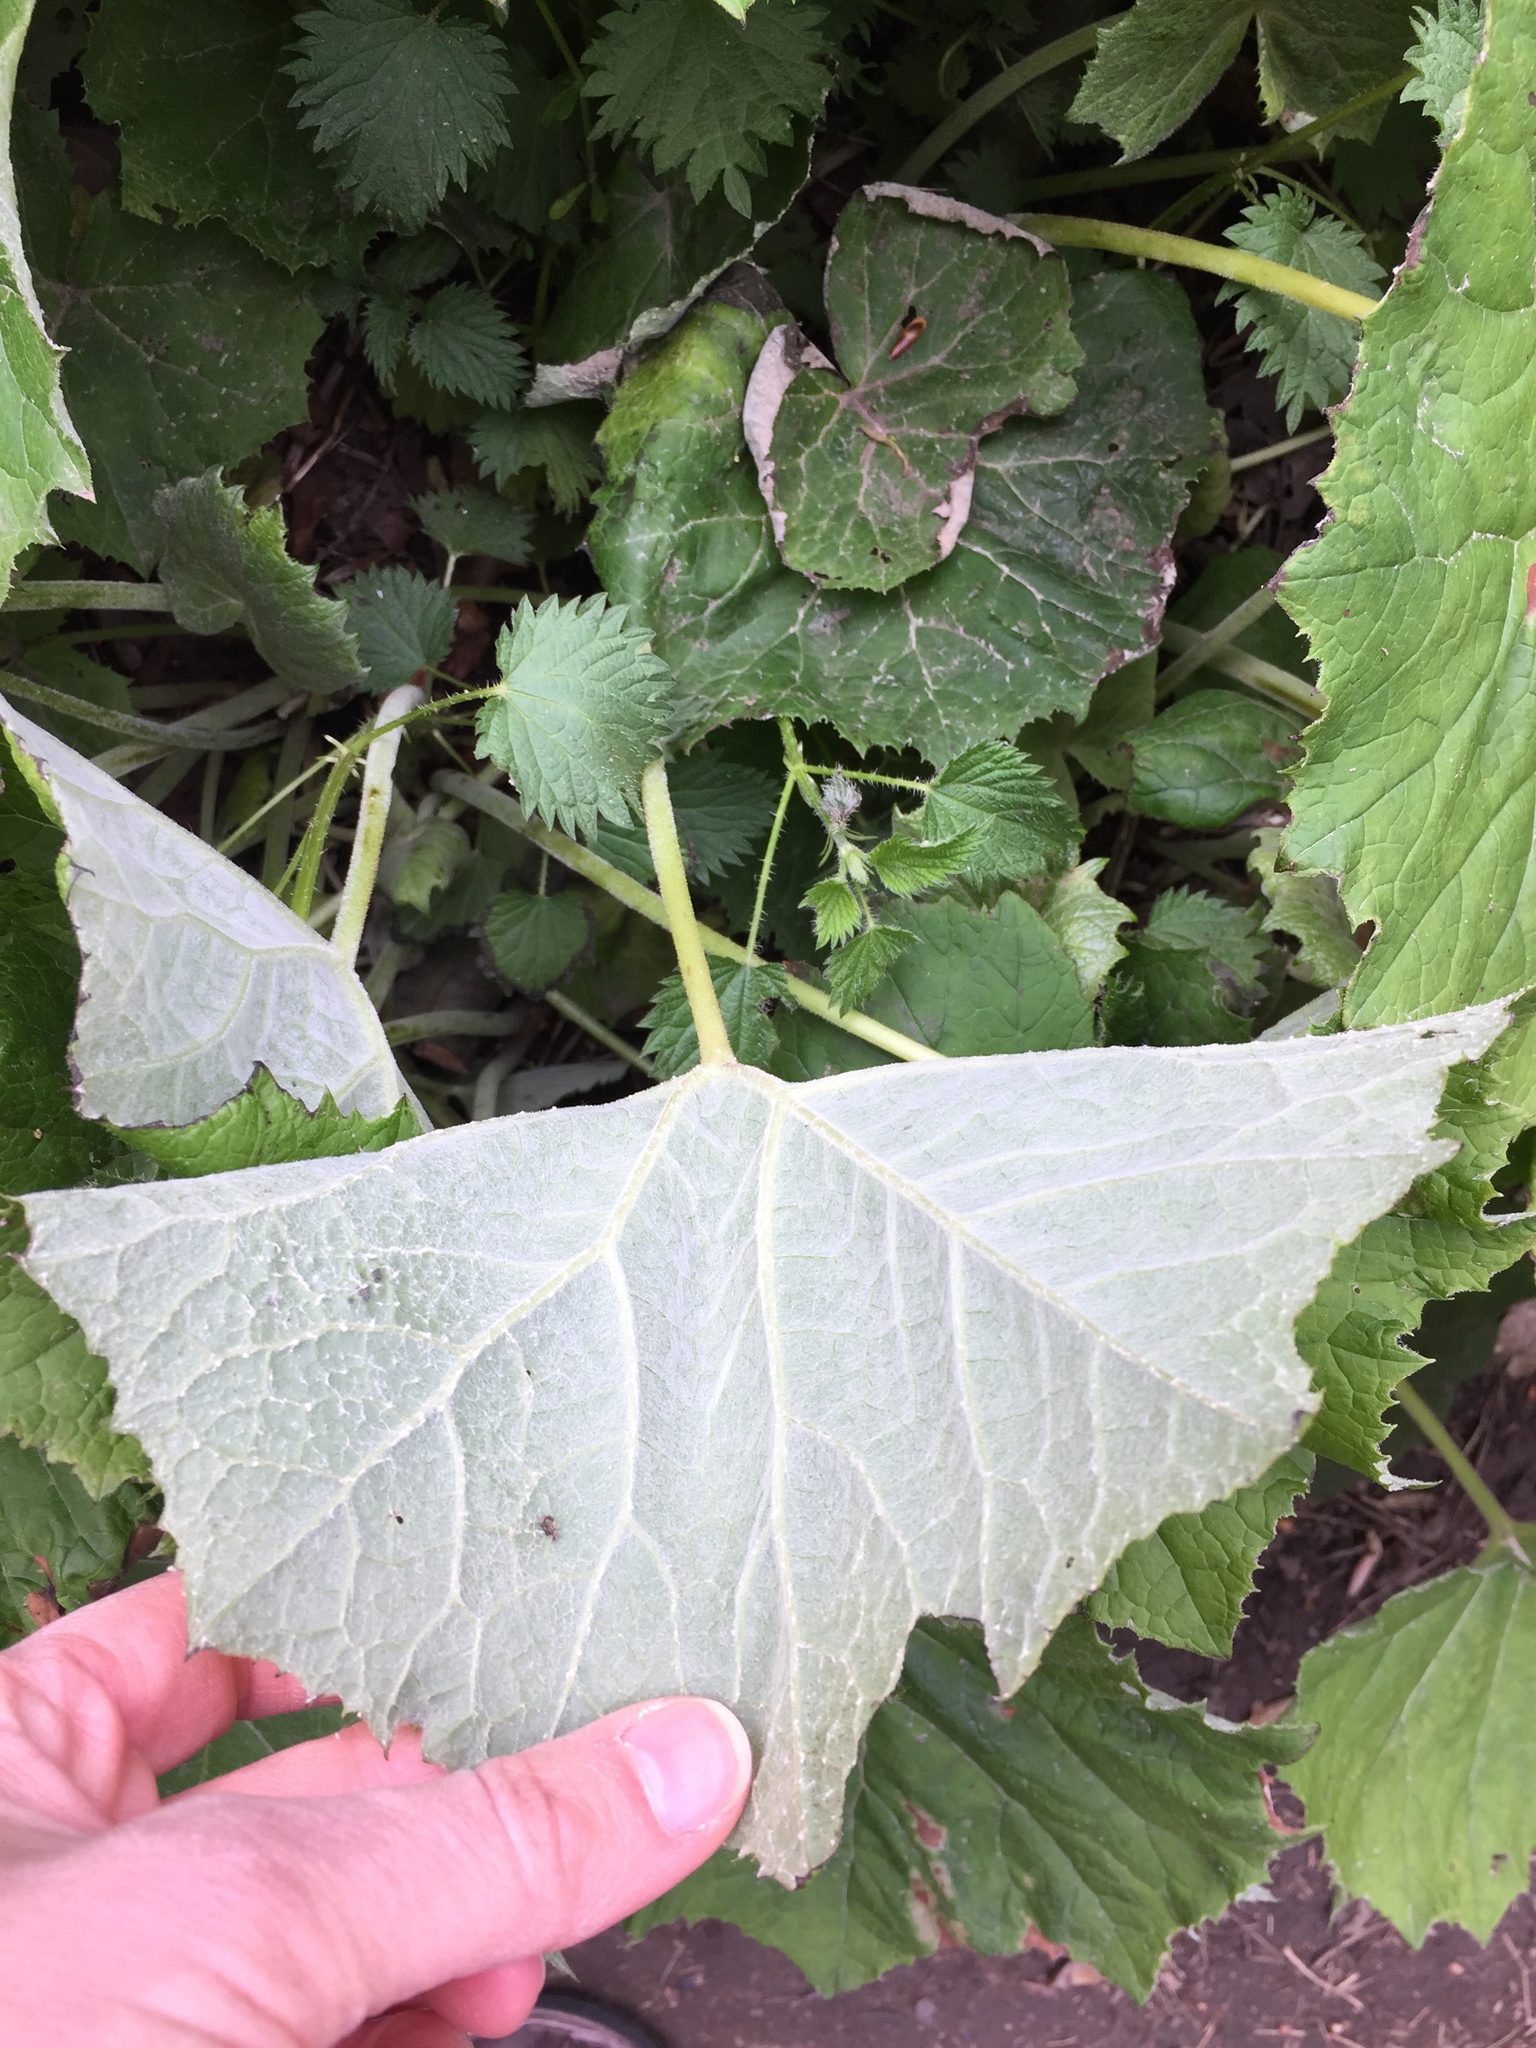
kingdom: Plantae
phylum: Tracheophyta
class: Magnoliopsida
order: Asterales
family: Asteraceae
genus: Tussilago
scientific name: Tussilago farfara
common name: Coltsfoot
